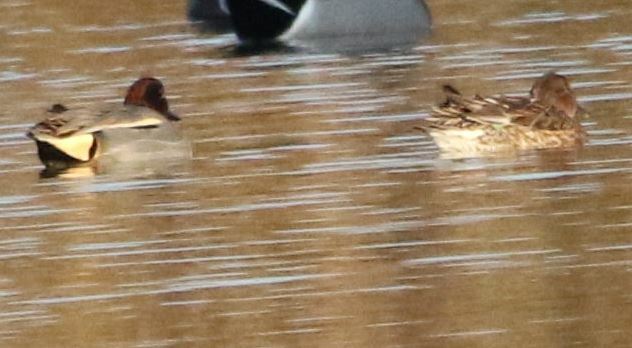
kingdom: Animalia
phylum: Chordata
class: Aves
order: Anseriformes
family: Anatidae
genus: Anas
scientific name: Anas crecca
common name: Eurasian teal
